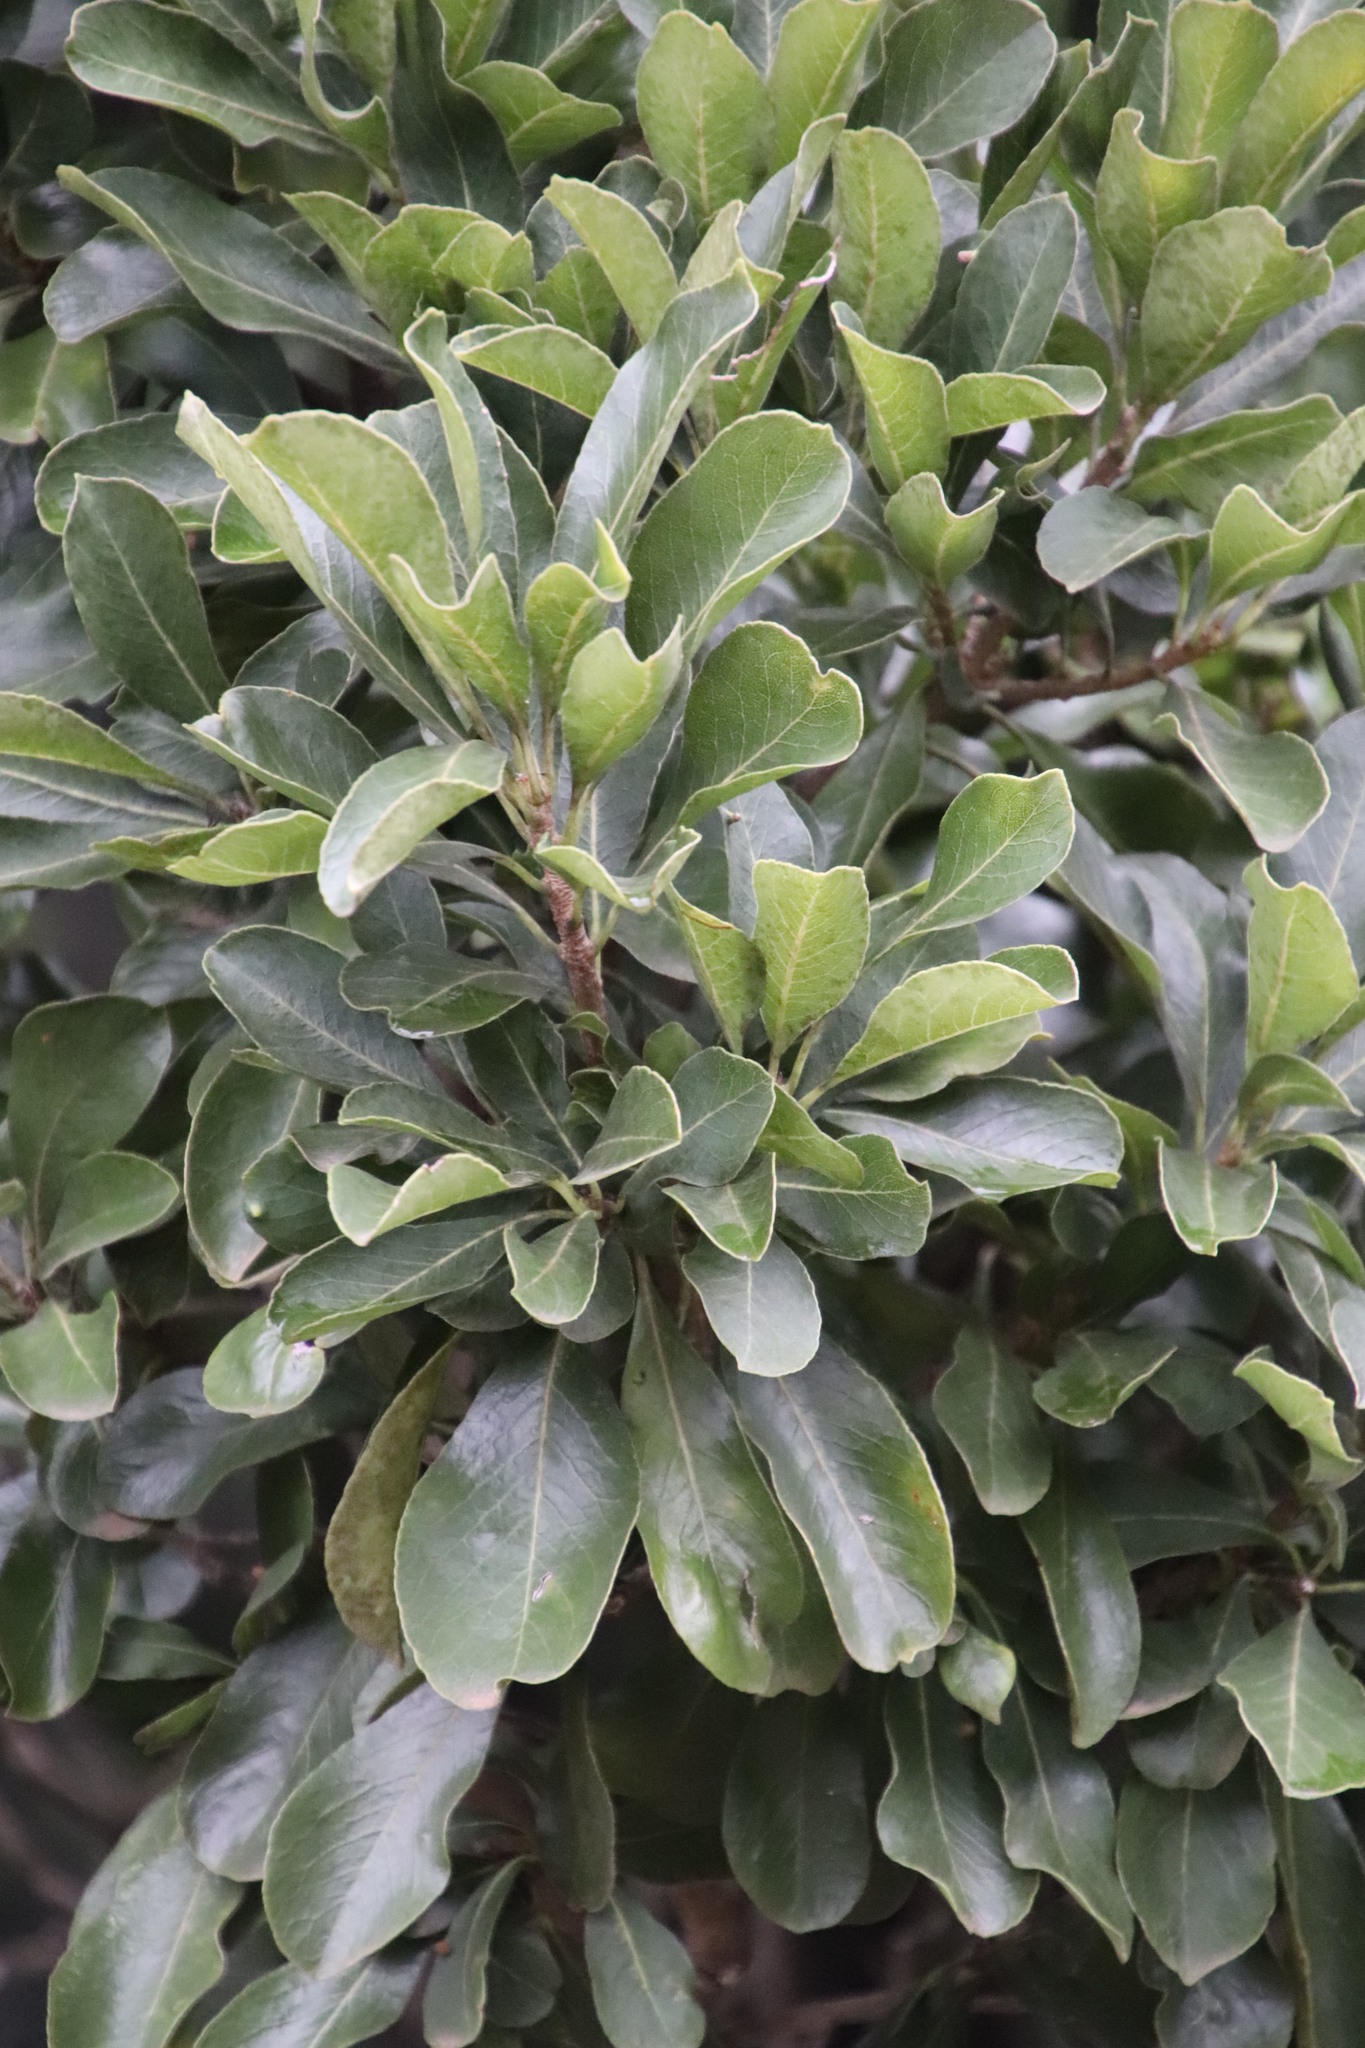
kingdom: Plantae
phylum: Tracheophyta
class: Magnoliopsida
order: Apiales
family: Pittosporaceae
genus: Pittosporum
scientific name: Pittosporum viridiflorum
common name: Cape cheesewood
